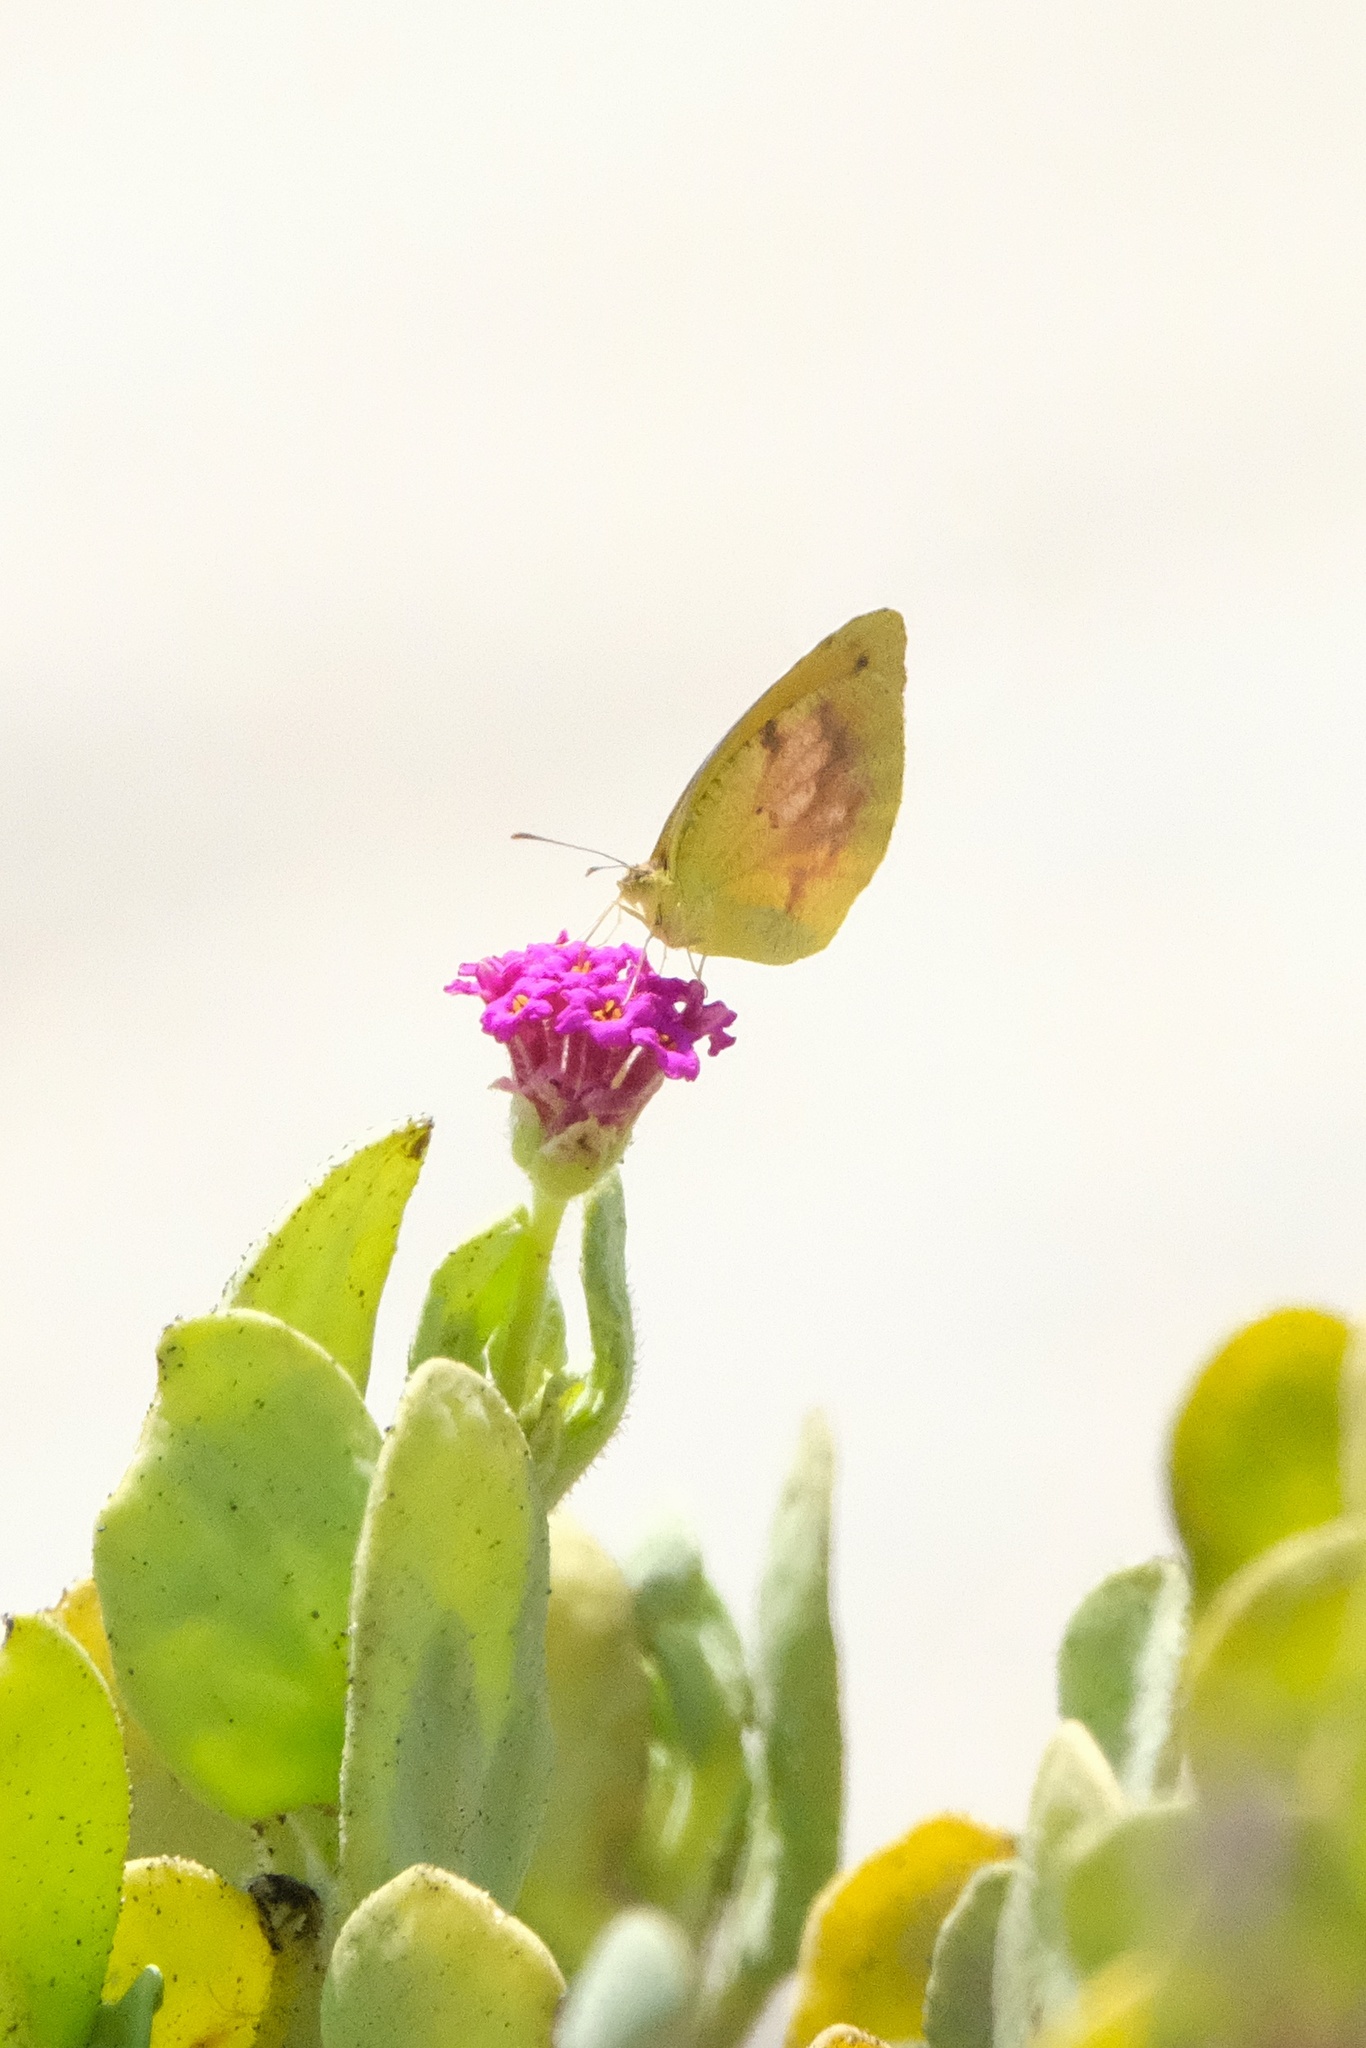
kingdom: Animalia
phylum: Arthropoda
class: Insecta
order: Lepidoptera
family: Pieridae
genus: Abaeis
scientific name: Abaeis nicippe
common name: Sleepy orange
